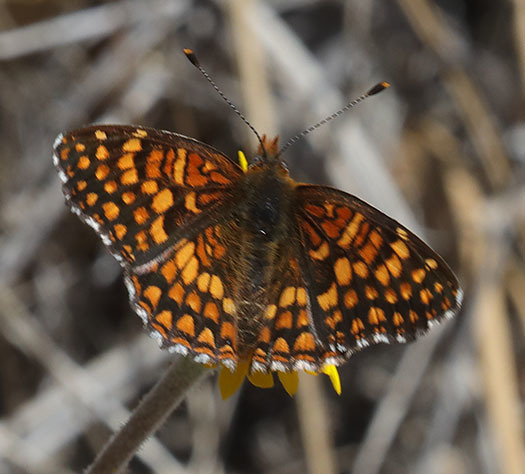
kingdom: Animalia
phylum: Arthropoda
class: Insecta
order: Lepidoptera
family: Nymphalidae
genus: Chlosyne
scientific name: Chlosyne gabbii
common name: Gabb's checkerspot
